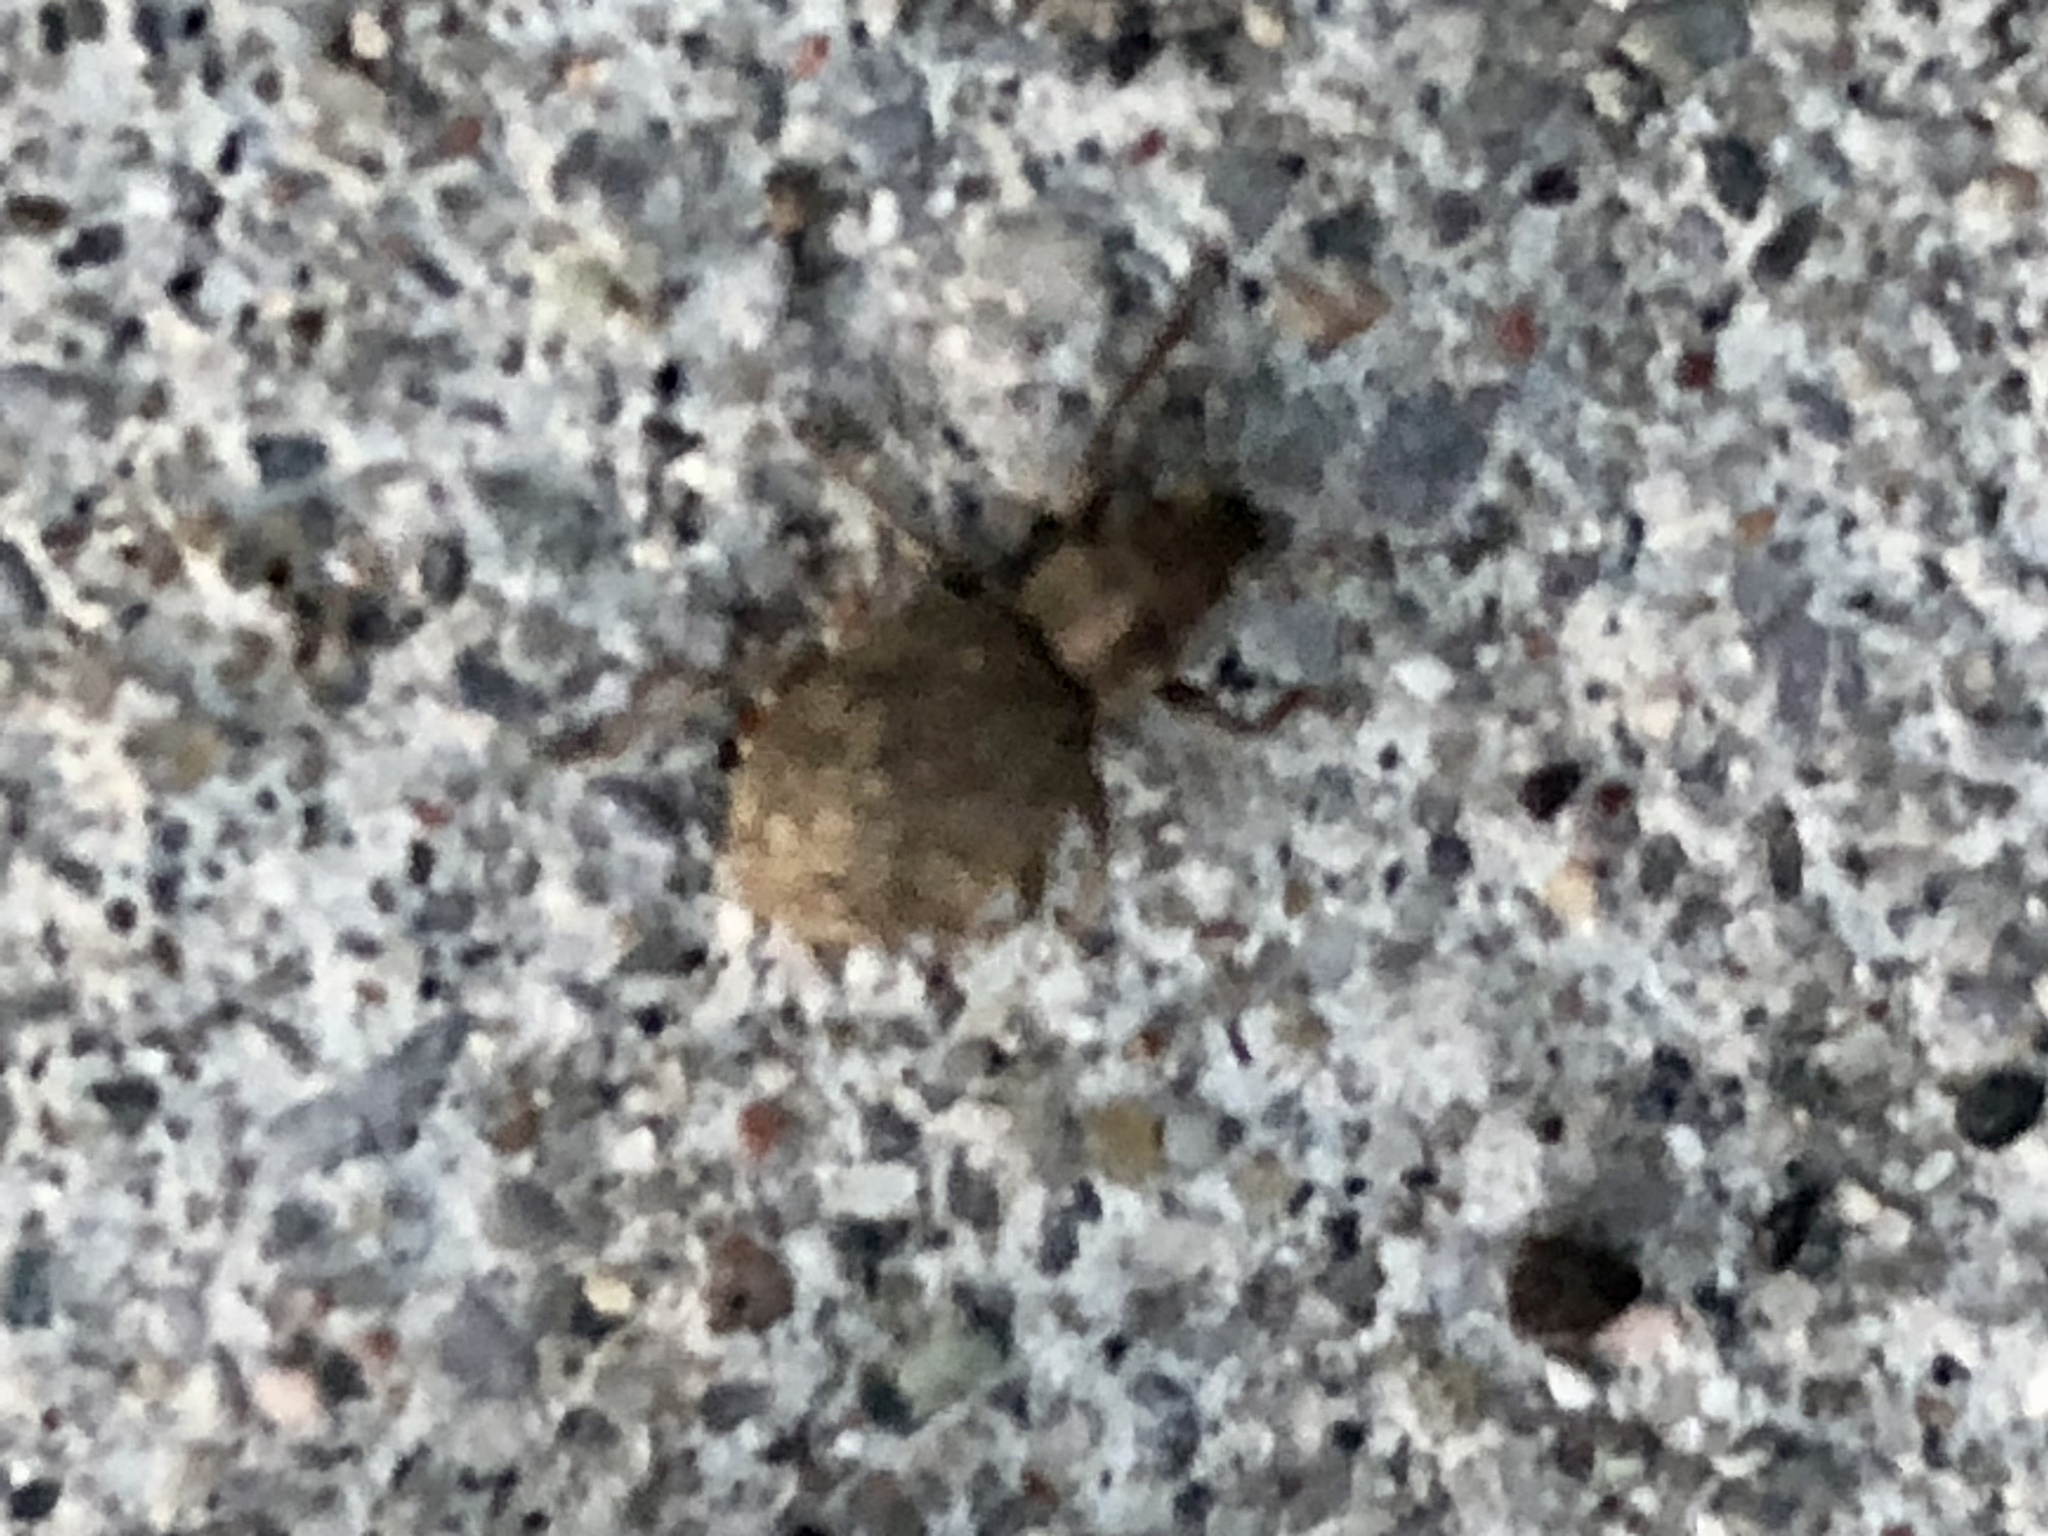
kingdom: Animalia
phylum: Arthropoda
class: Insecta
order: Coleoptera
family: Curculionidae
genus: Sciaphilus
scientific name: Sciaphilus asperatus
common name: Weevil
